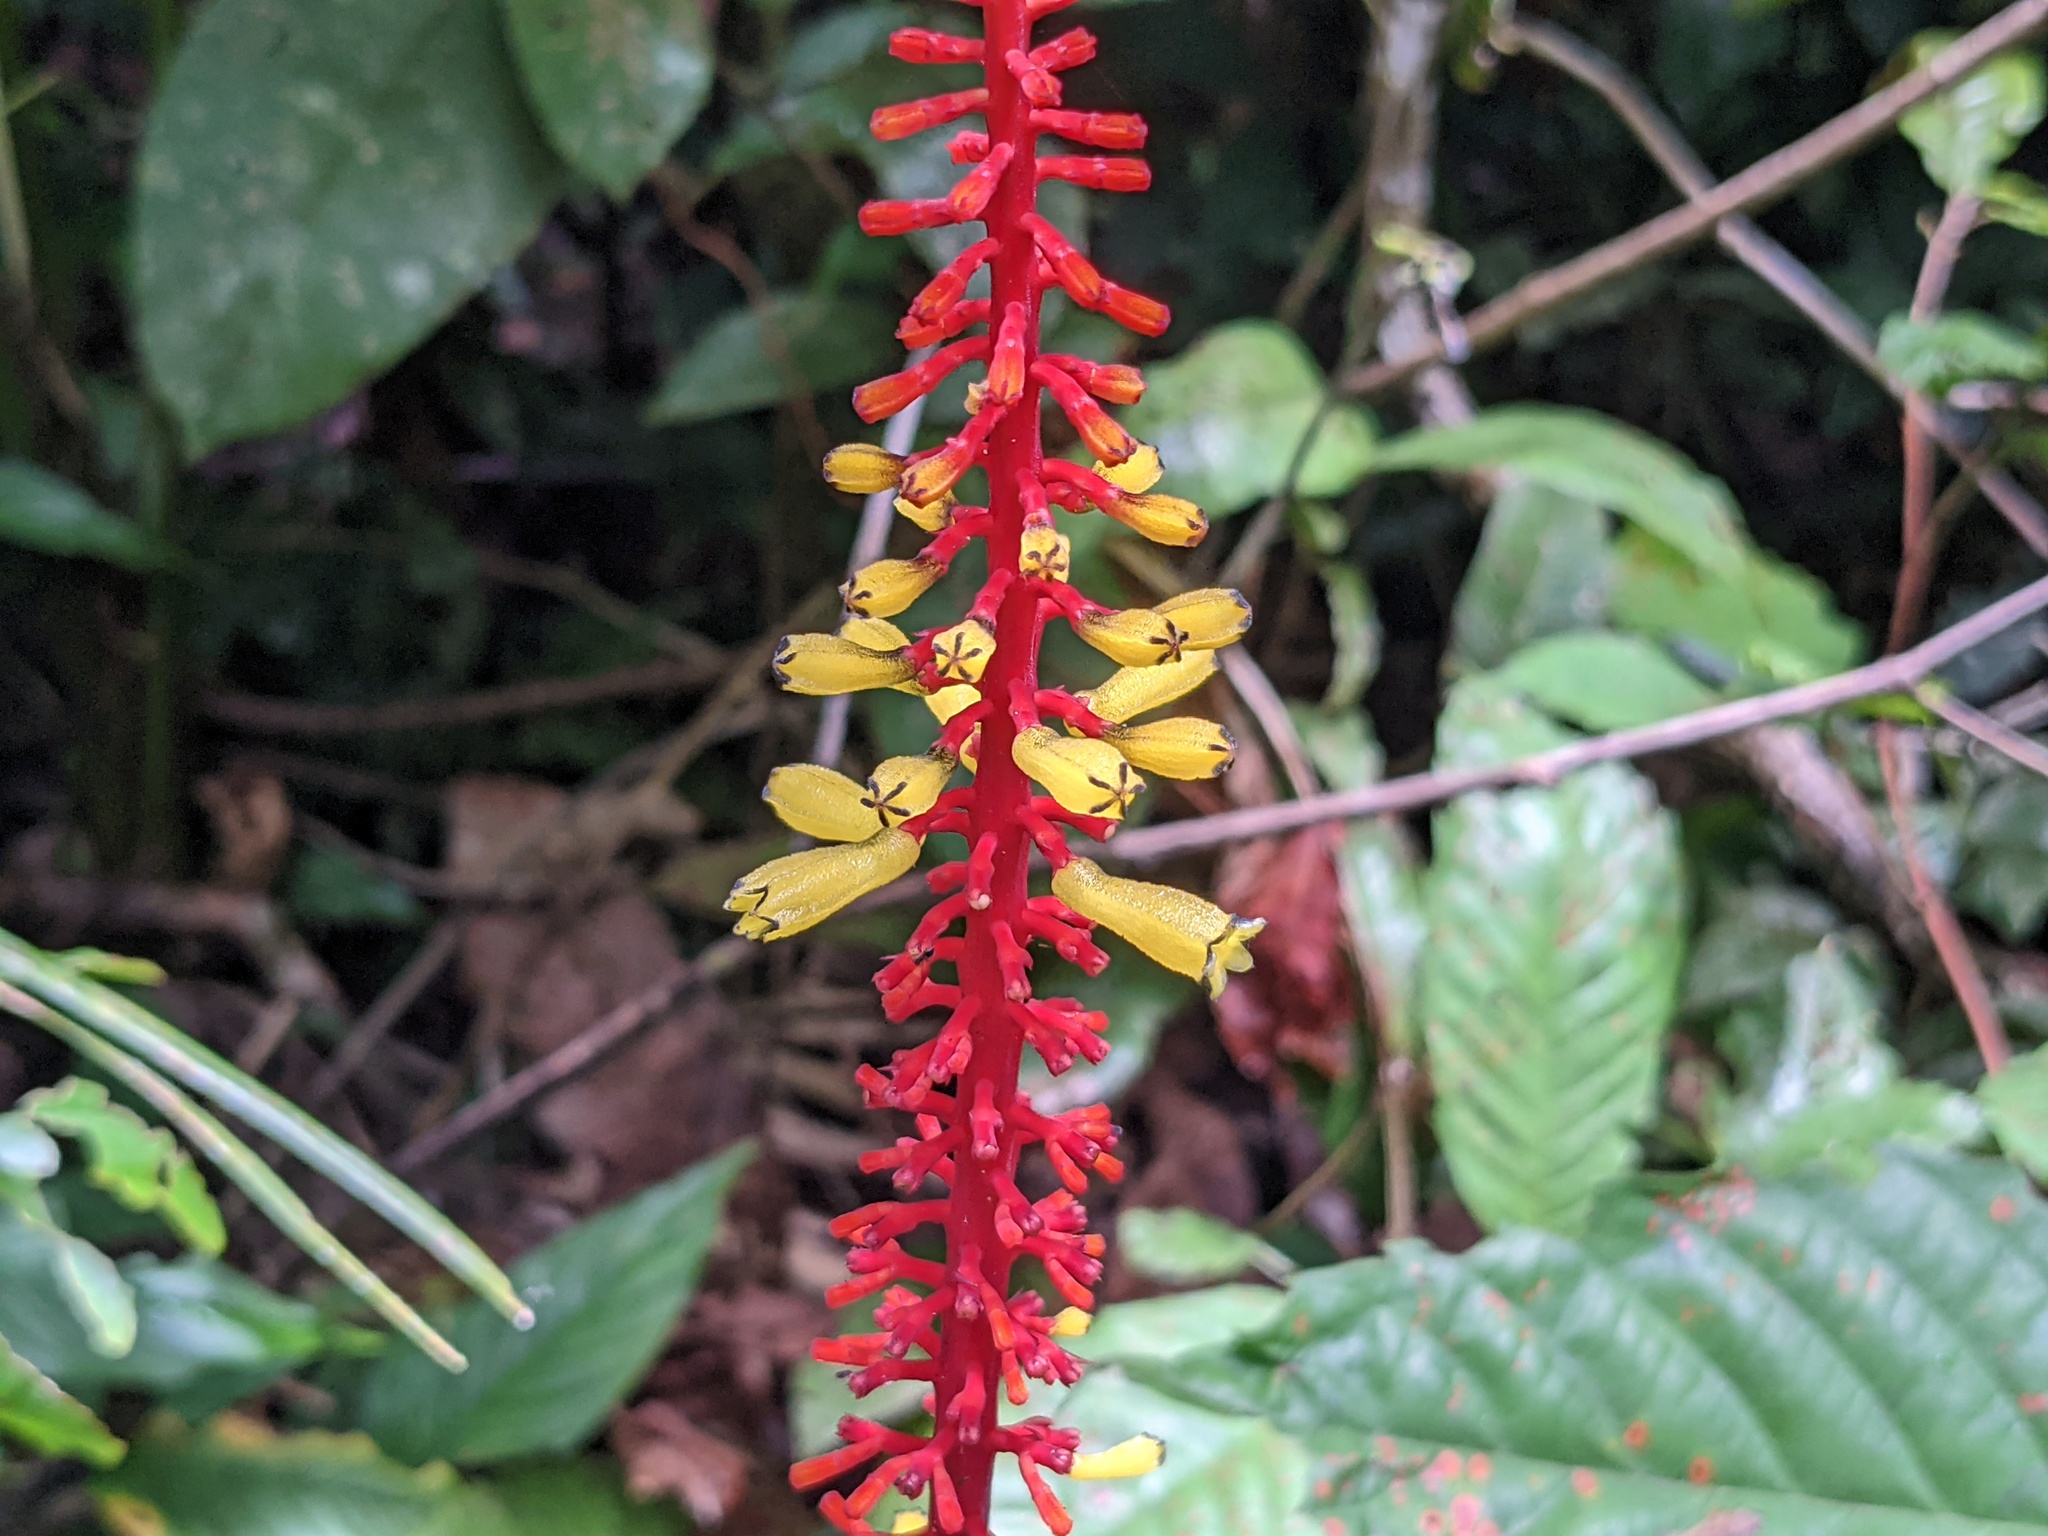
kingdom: Plantae
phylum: Tracheophyta
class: Magnoliopsida
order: Gentianales
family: Rubiaceae
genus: Palicourea
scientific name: Palicourea subspicata
